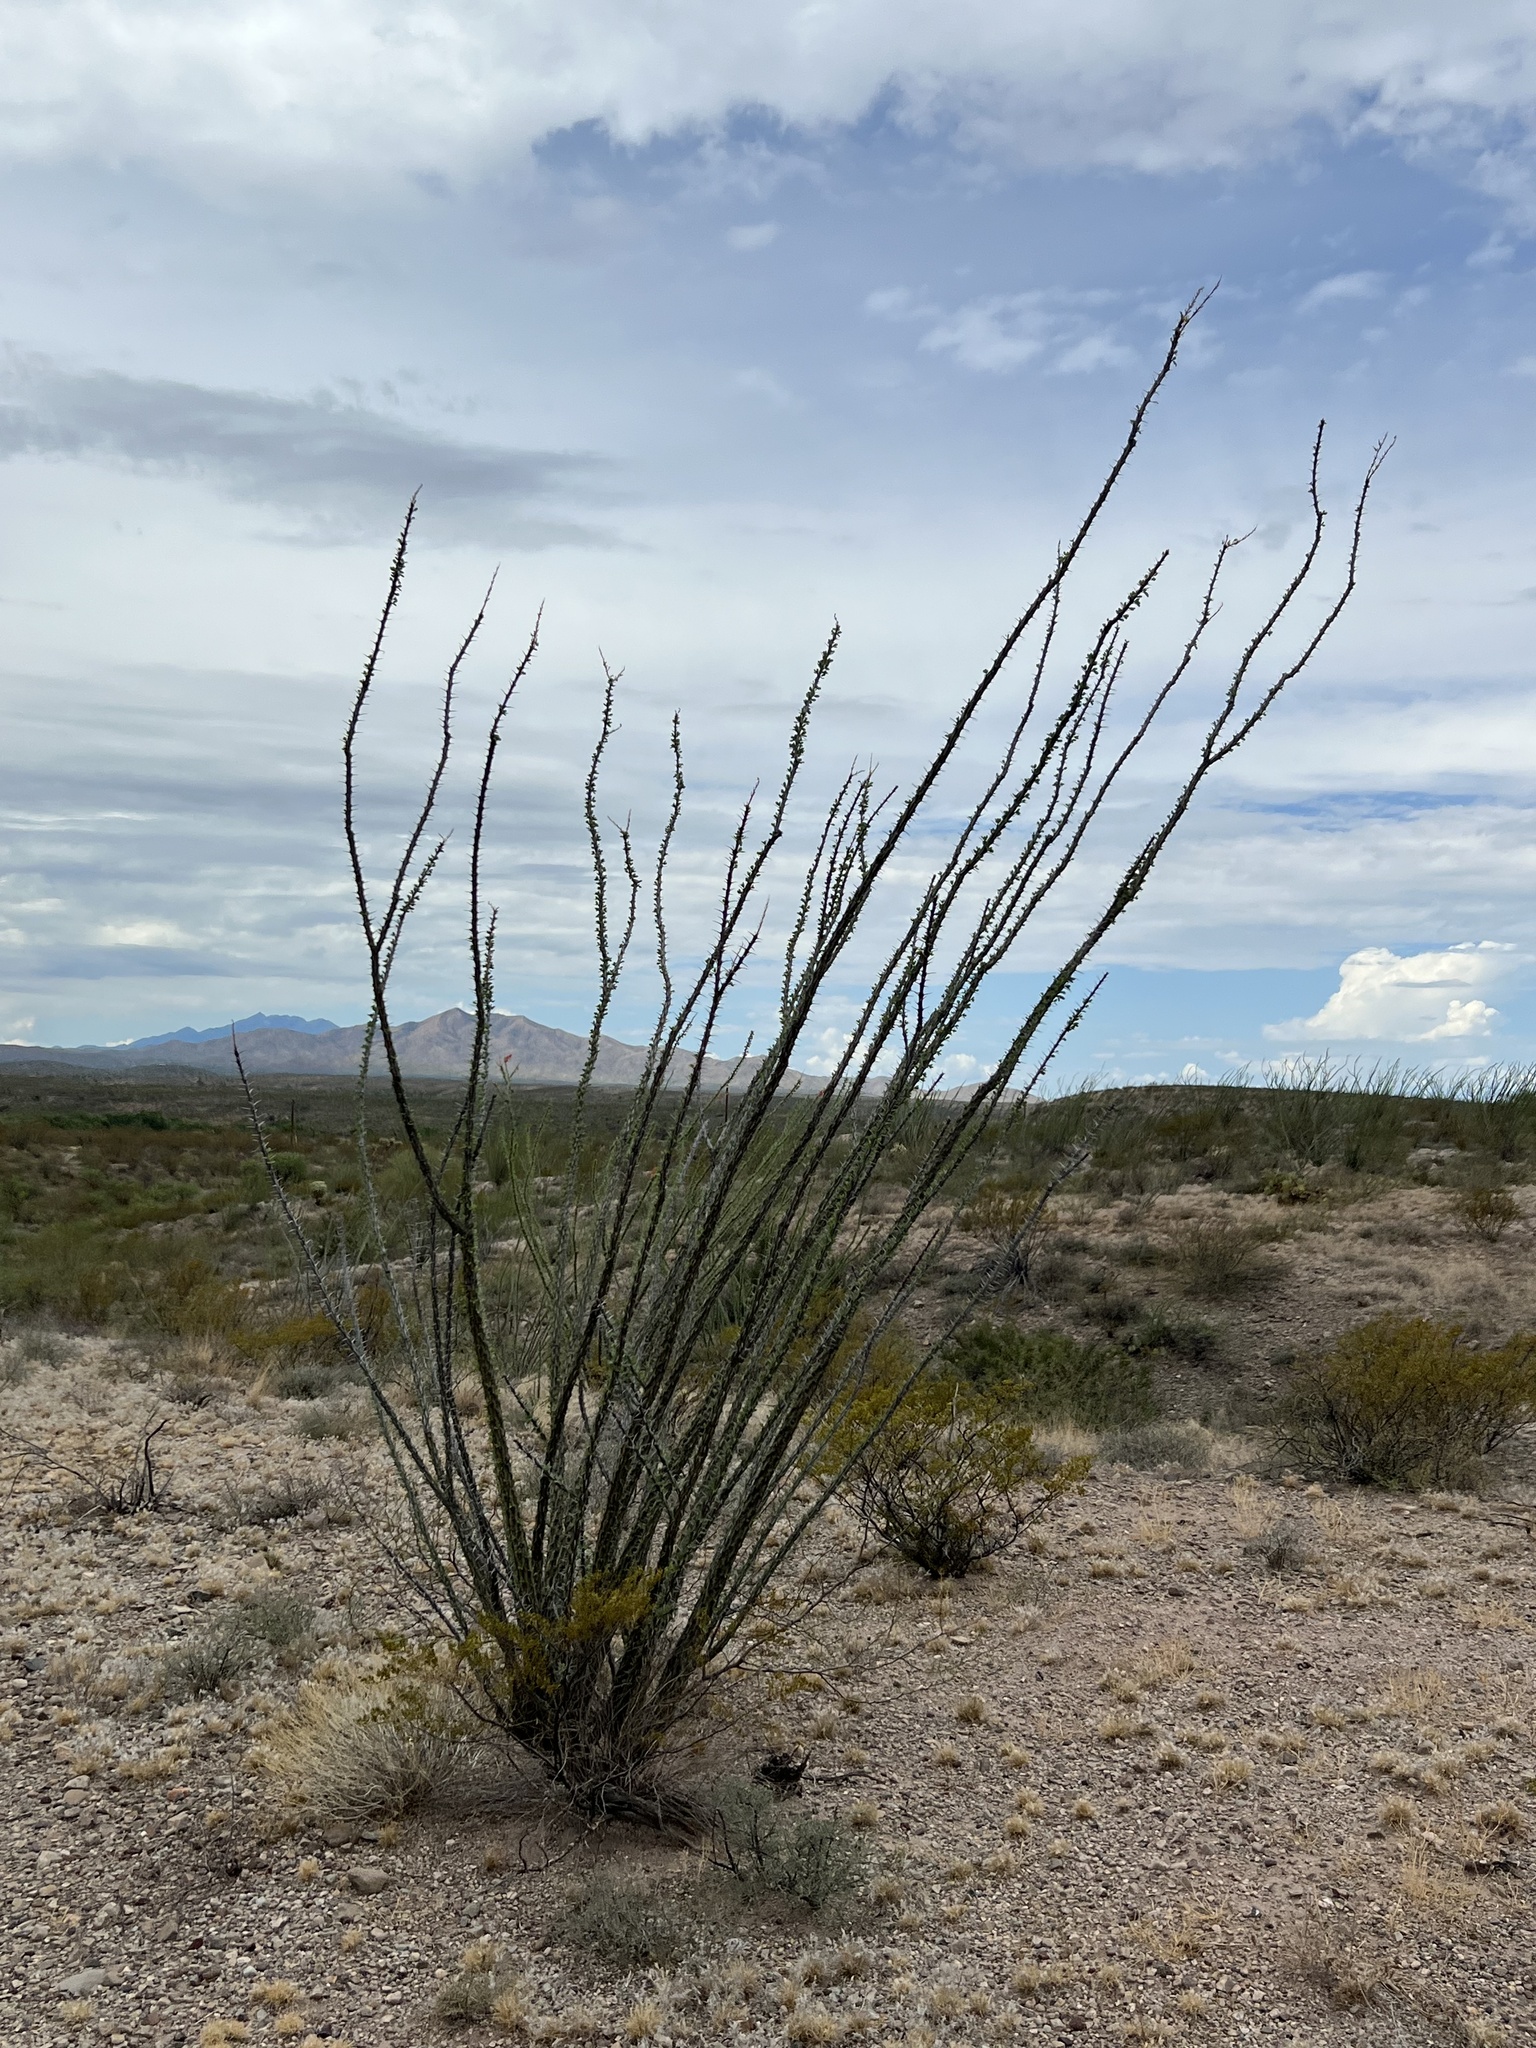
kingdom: Plantae
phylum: Tracheophyta
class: Magnoliopsida
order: Ericales
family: Fouquieriaceae
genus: Fouquieria
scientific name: Fouquieria splendens
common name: Vine-cactus
